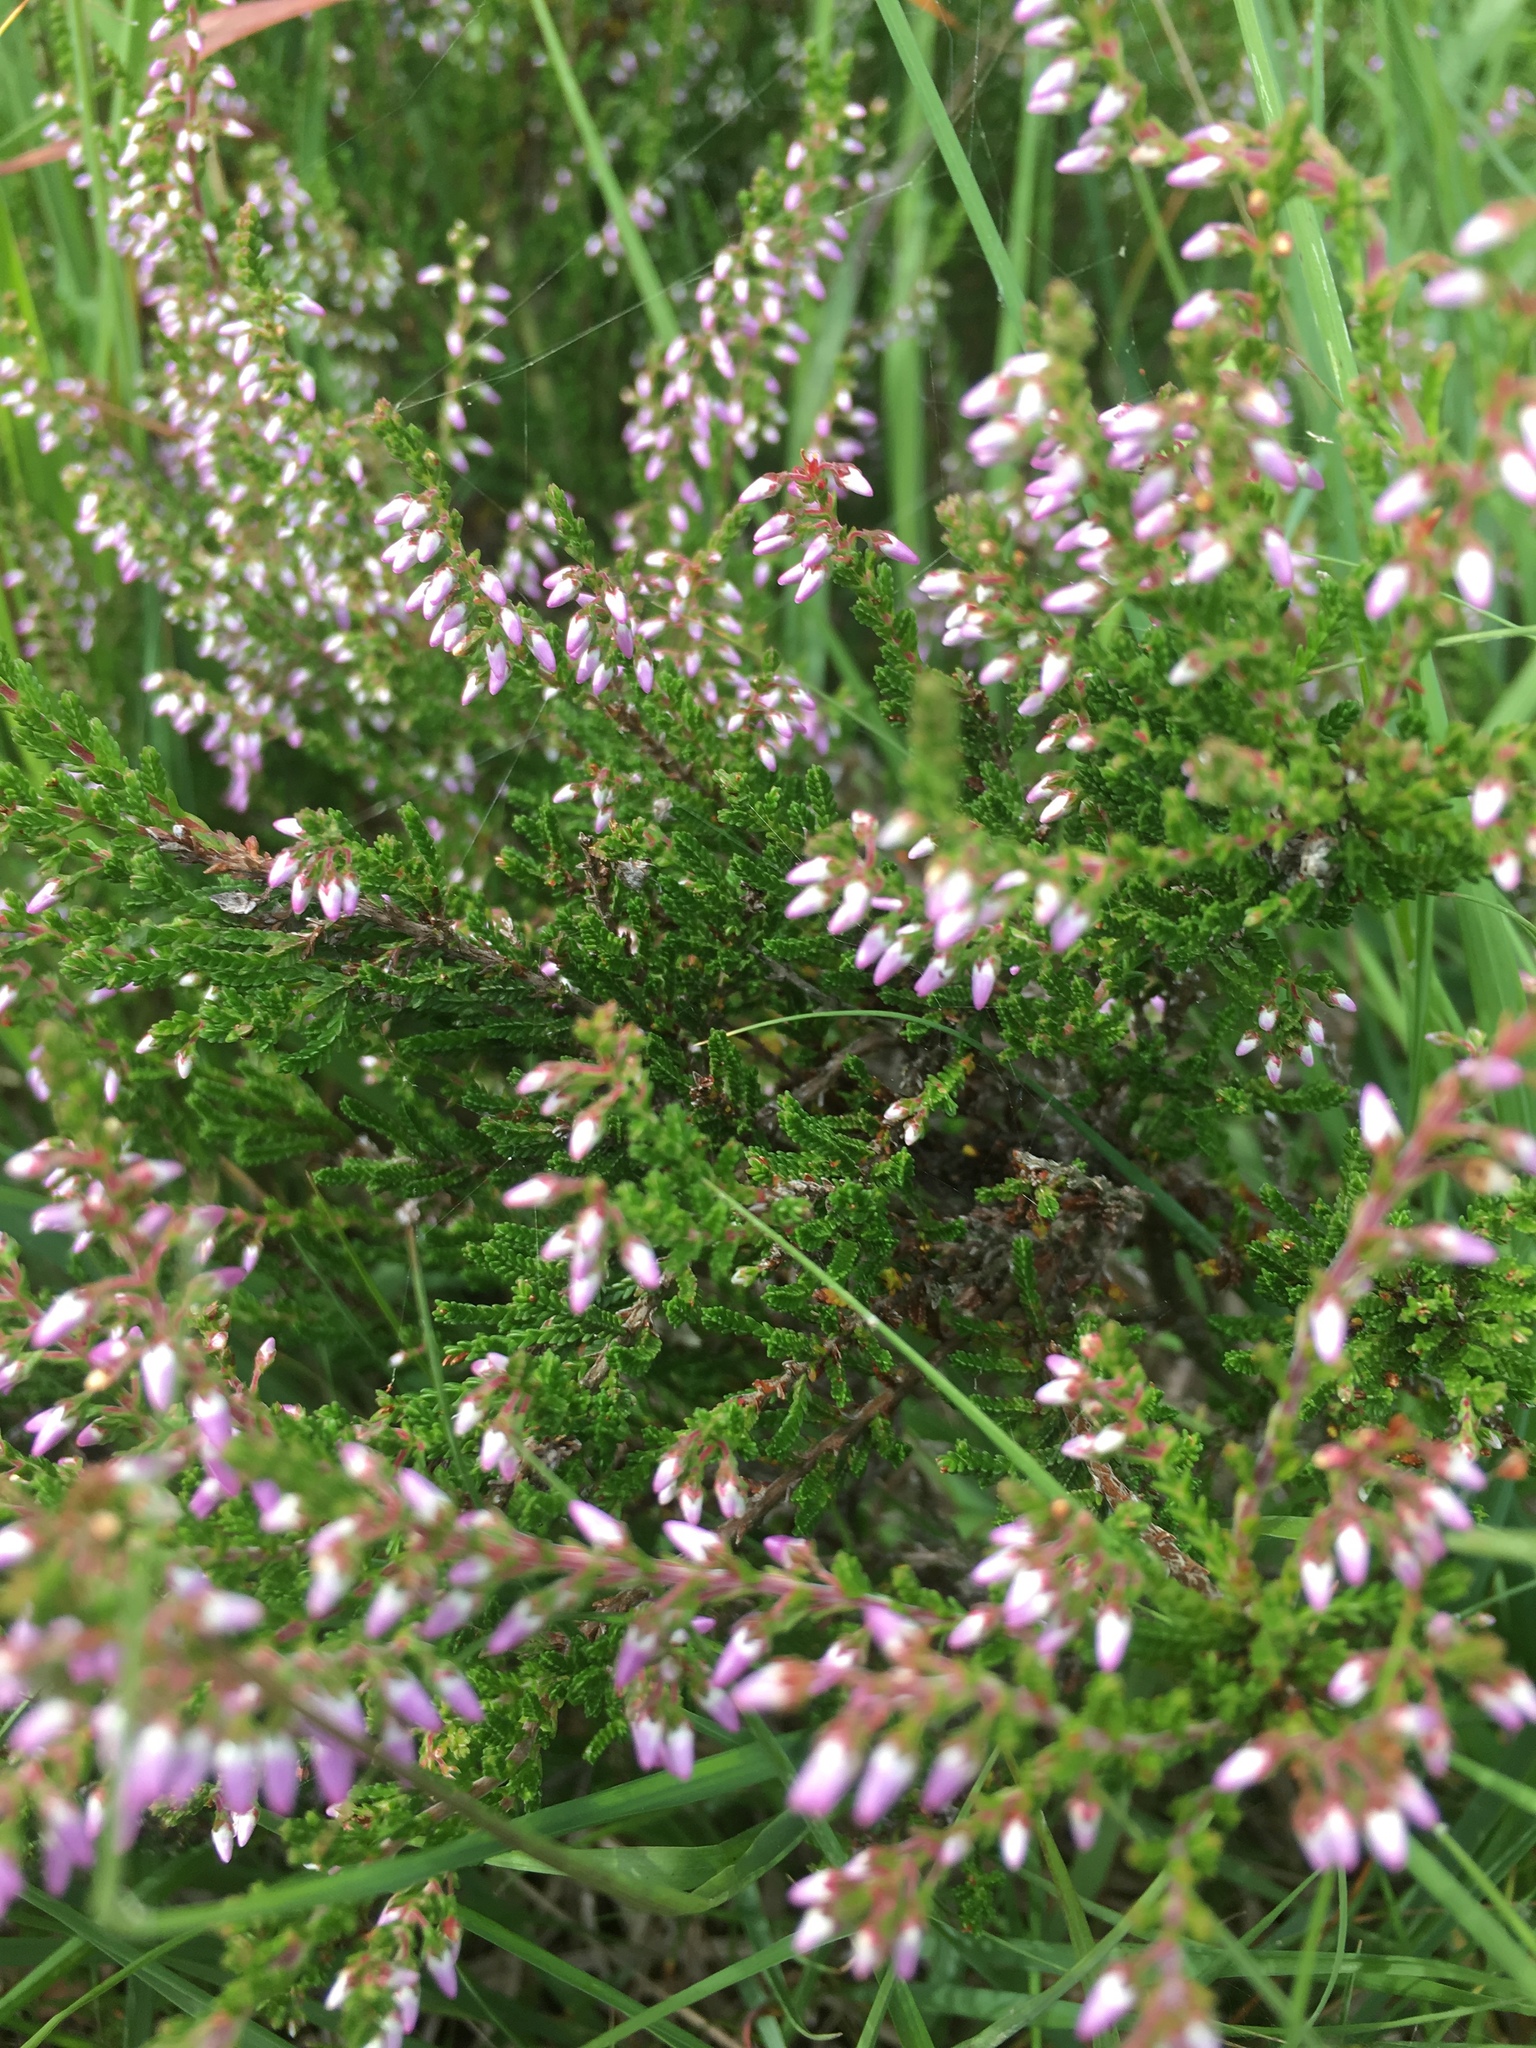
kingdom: Plantae
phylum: Tracheophyta
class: Magnoliopsida
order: Ericales
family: Ericaceae
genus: Calluna
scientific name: Calluna vulgaris
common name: Heather
